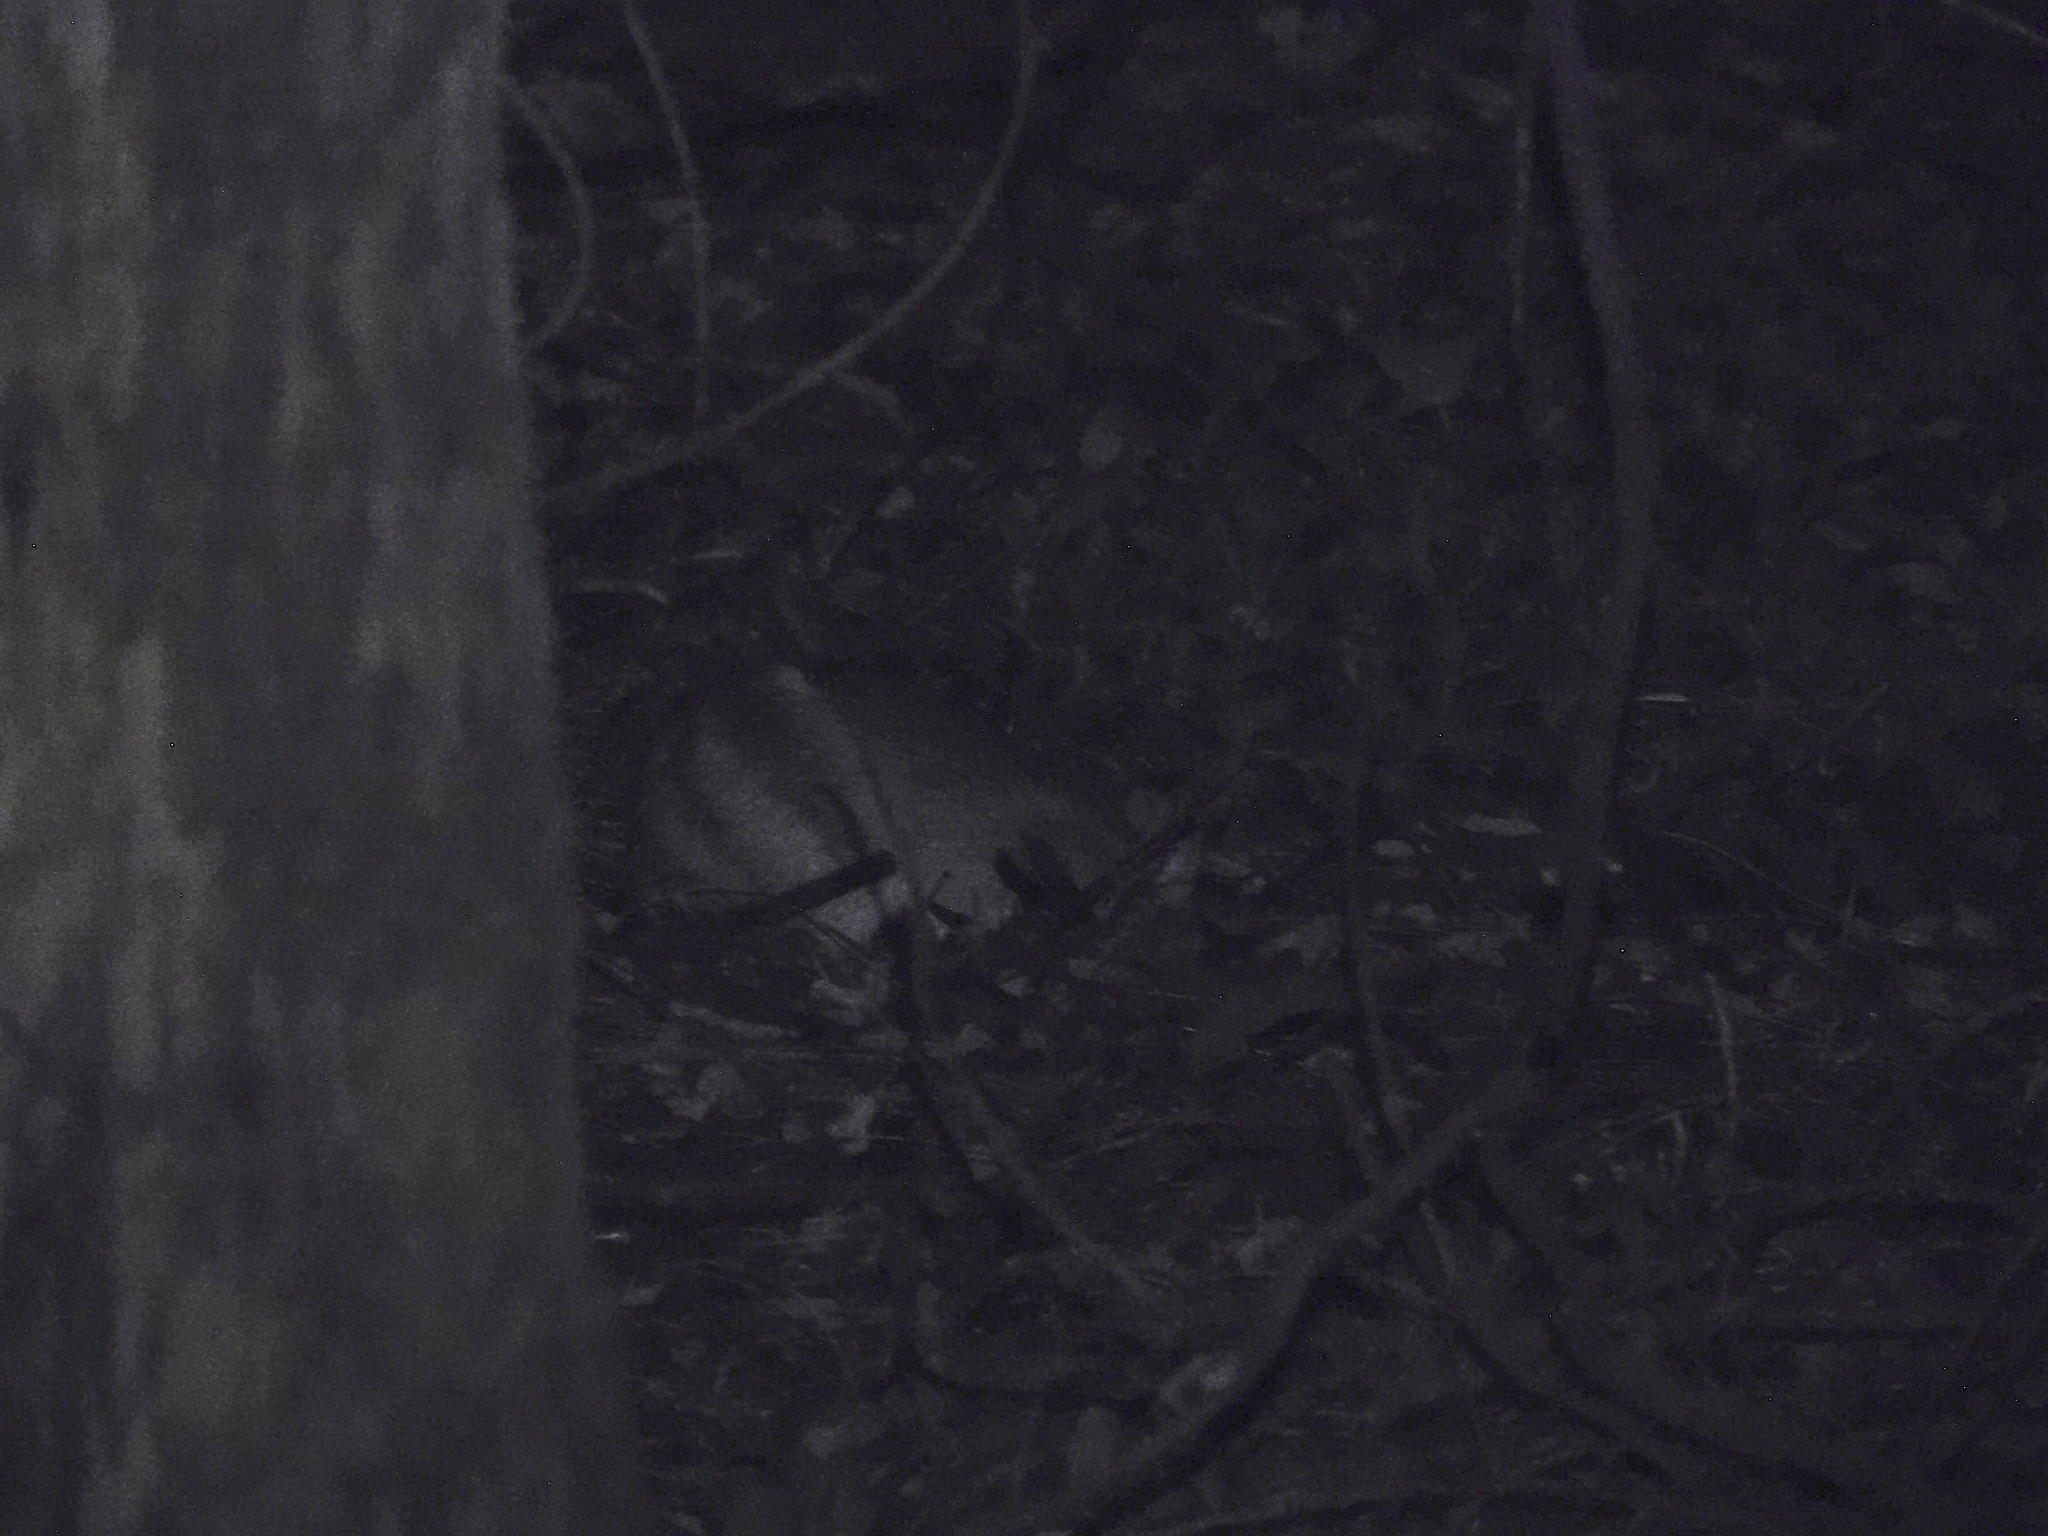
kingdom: Animalia
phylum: Chordata
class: Mammalia
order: Peramelemorphia
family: Peramelidae
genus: Perameles
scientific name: Perameles gunnii
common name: Eastern barred bandicoot
